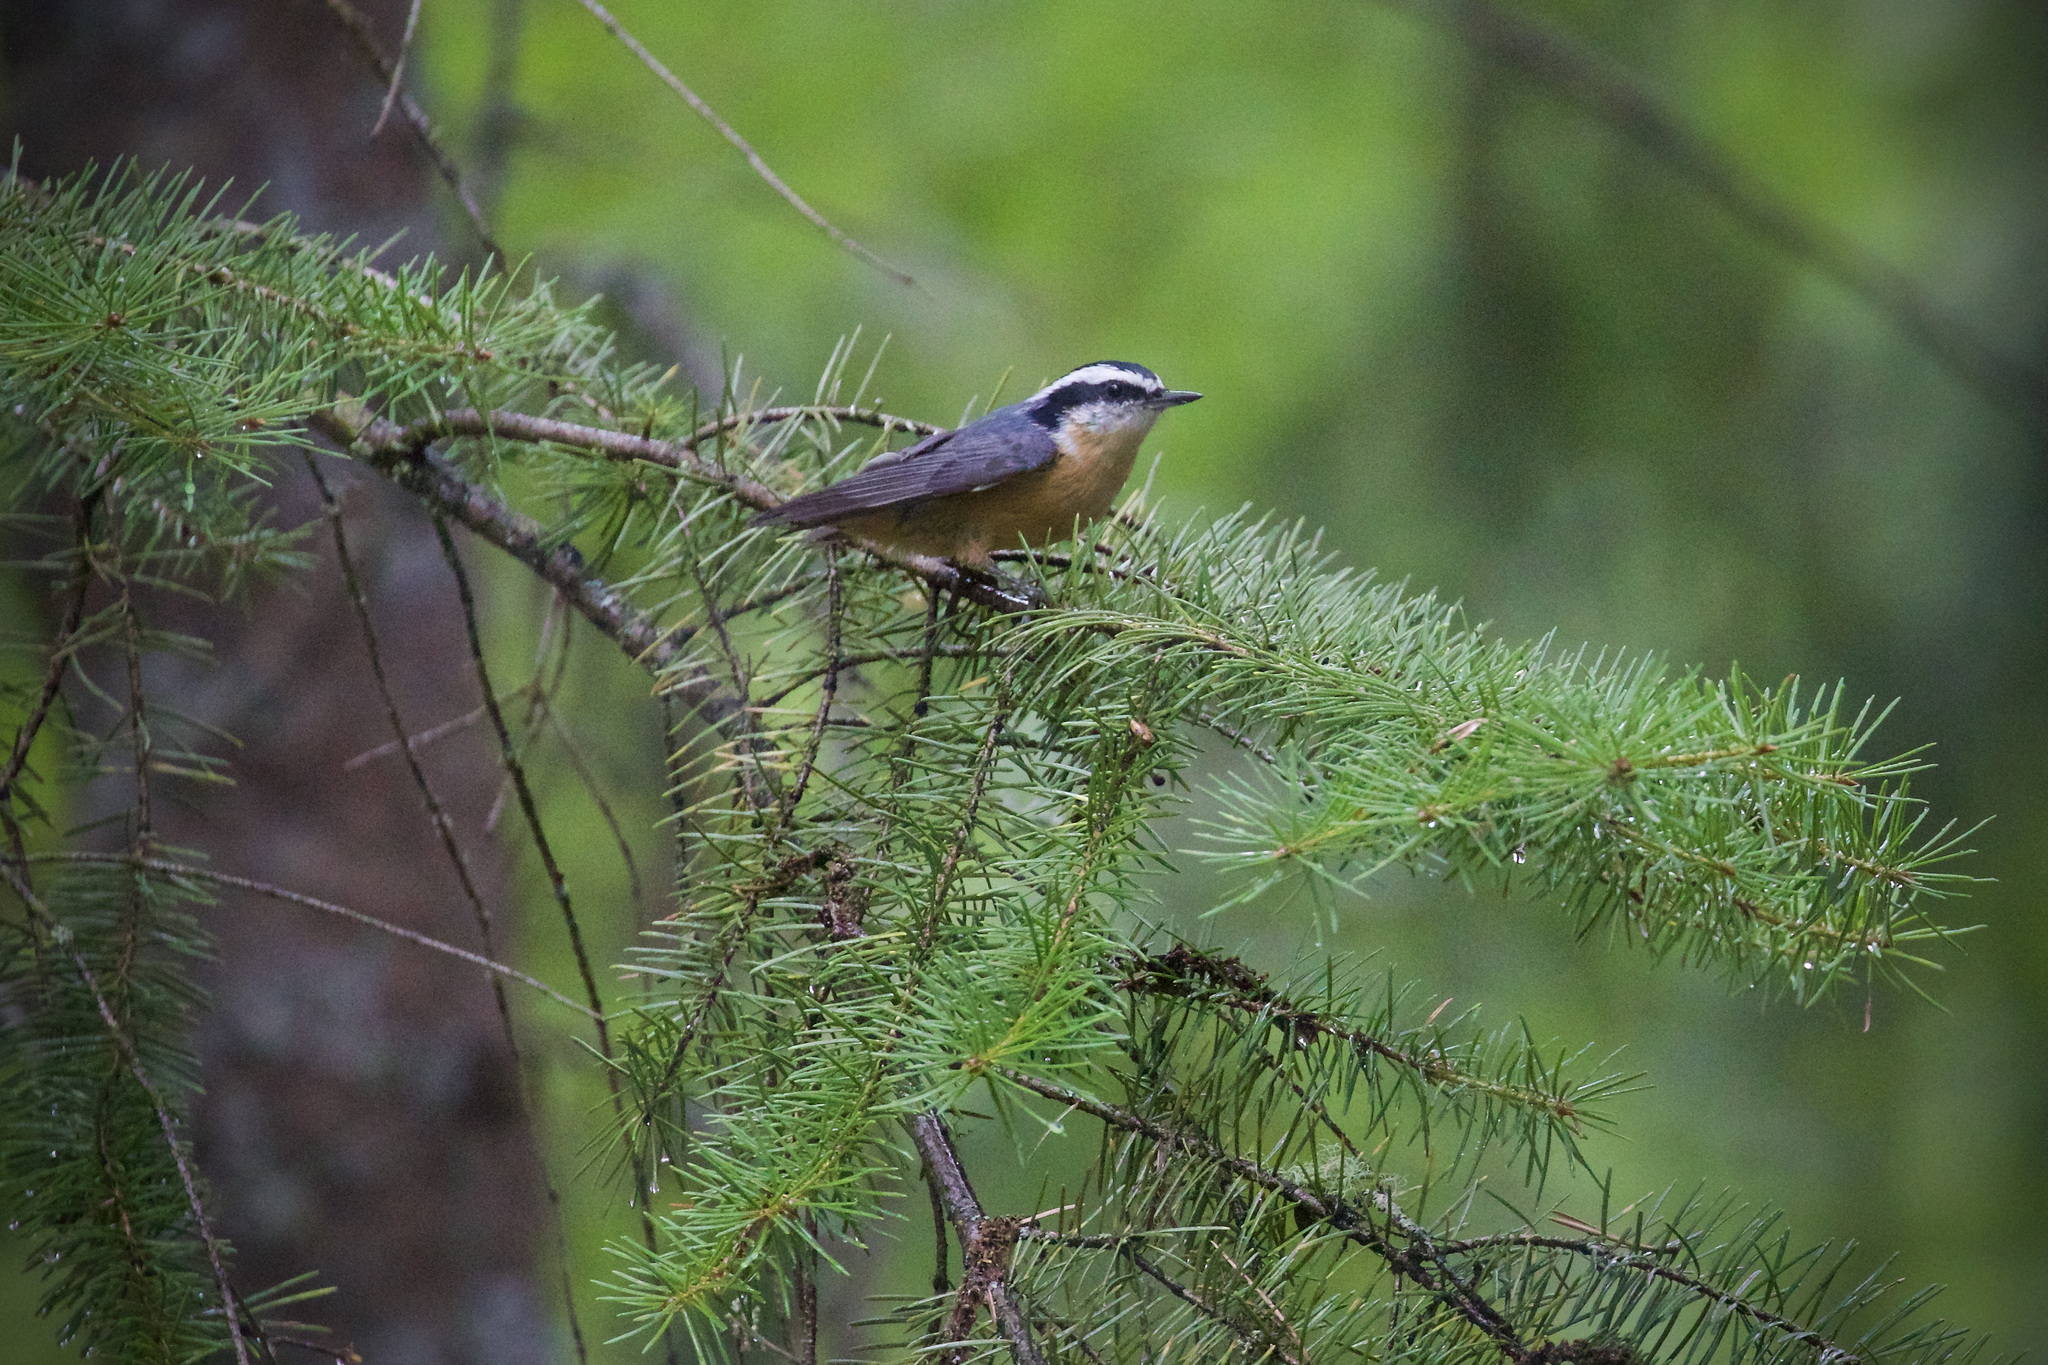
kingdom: Animalia
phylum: Chordata
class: Aves
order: Passeriformes
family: Sittidae
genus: Sitta
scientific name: Sitta canadensis
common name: Red-breasted nuthatch
